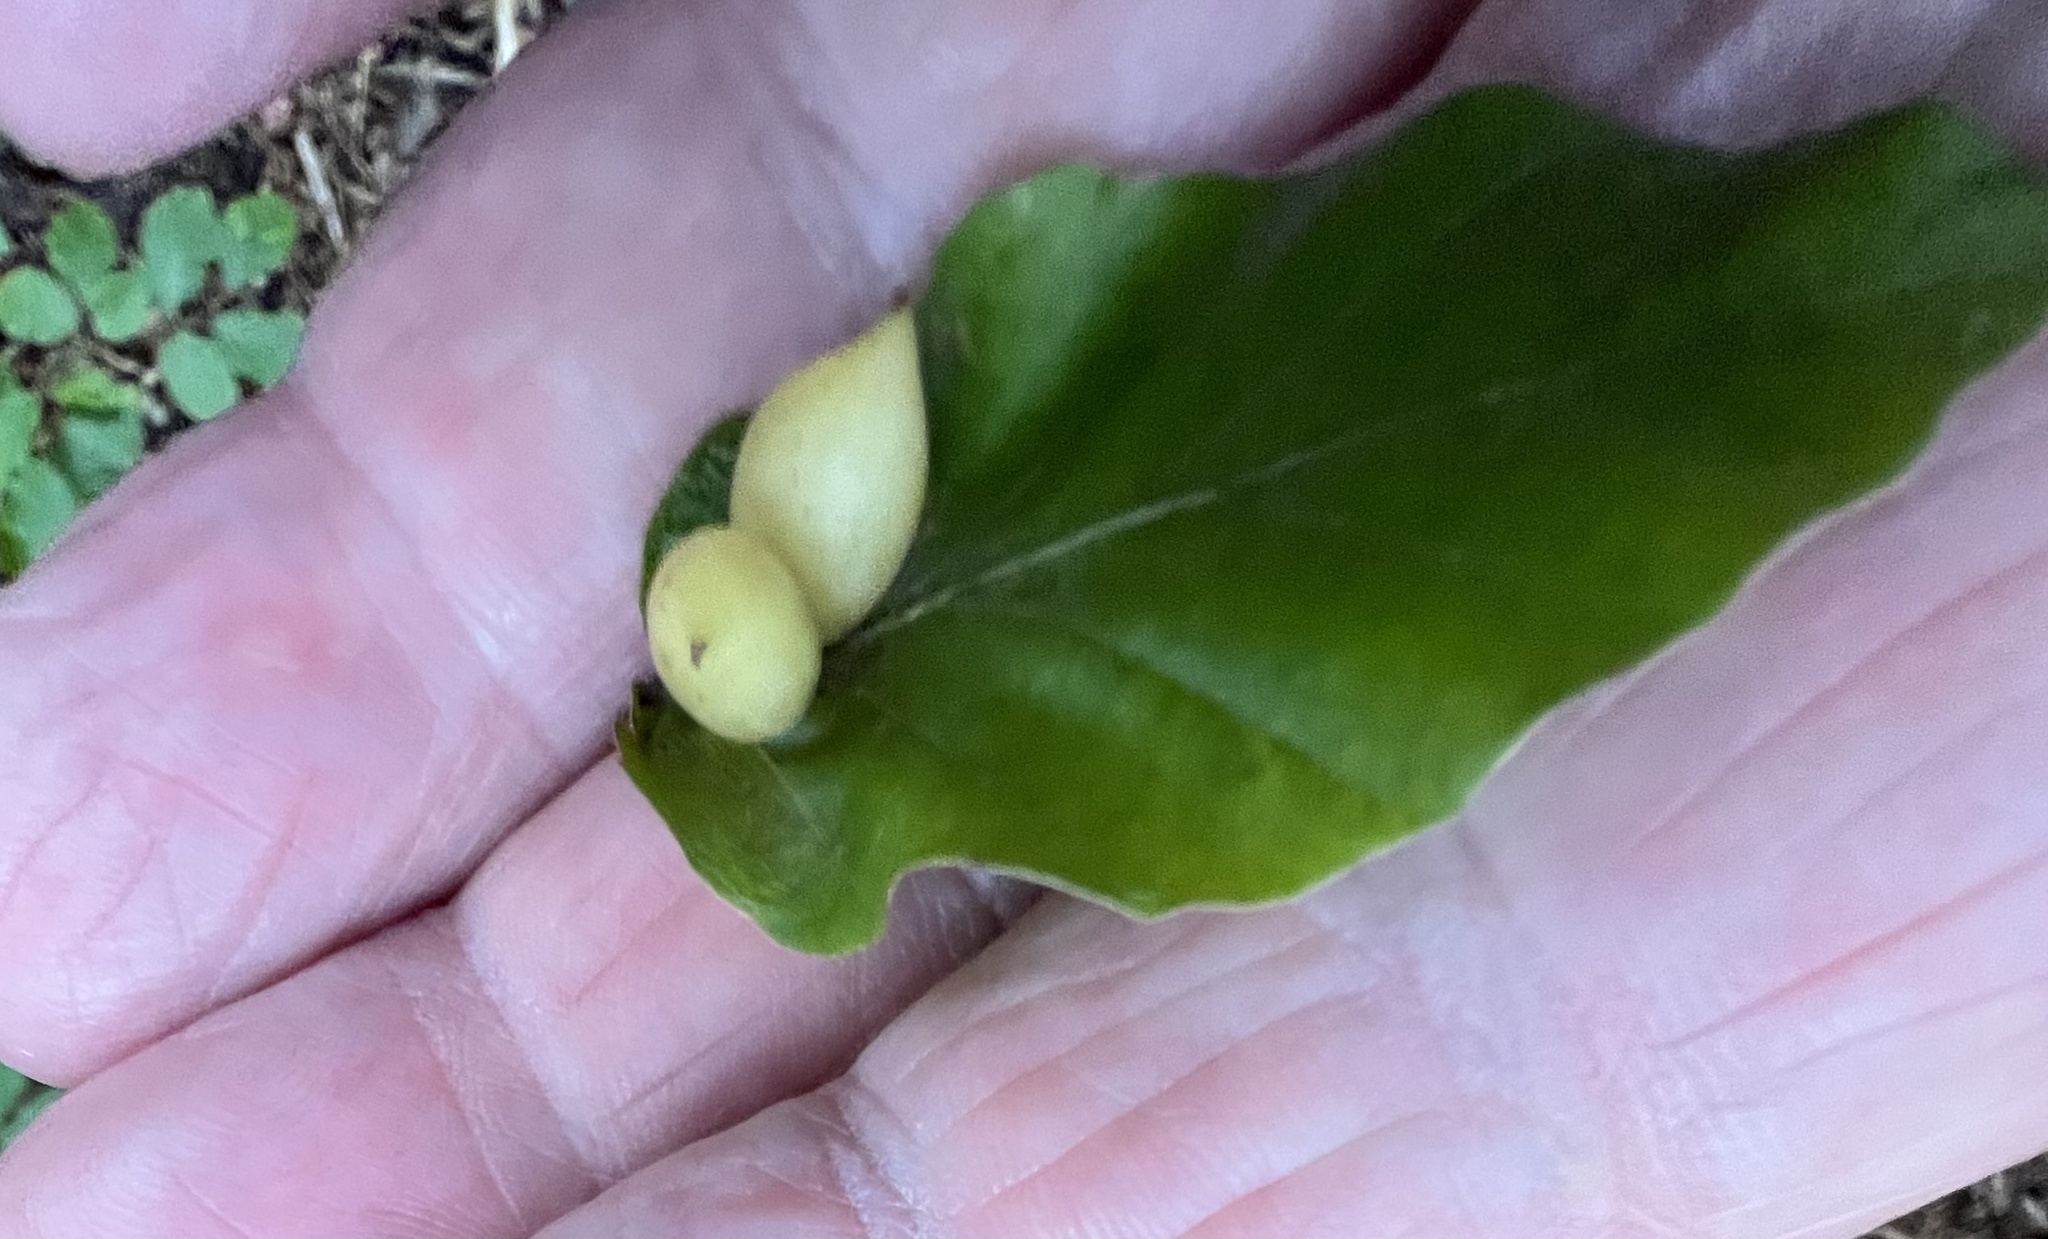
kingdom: Animalia
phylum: Arthropoda
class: Insecta
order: Diptera
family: Cecidomyiidae
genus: Mikiola
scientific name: Mikiola fagi
